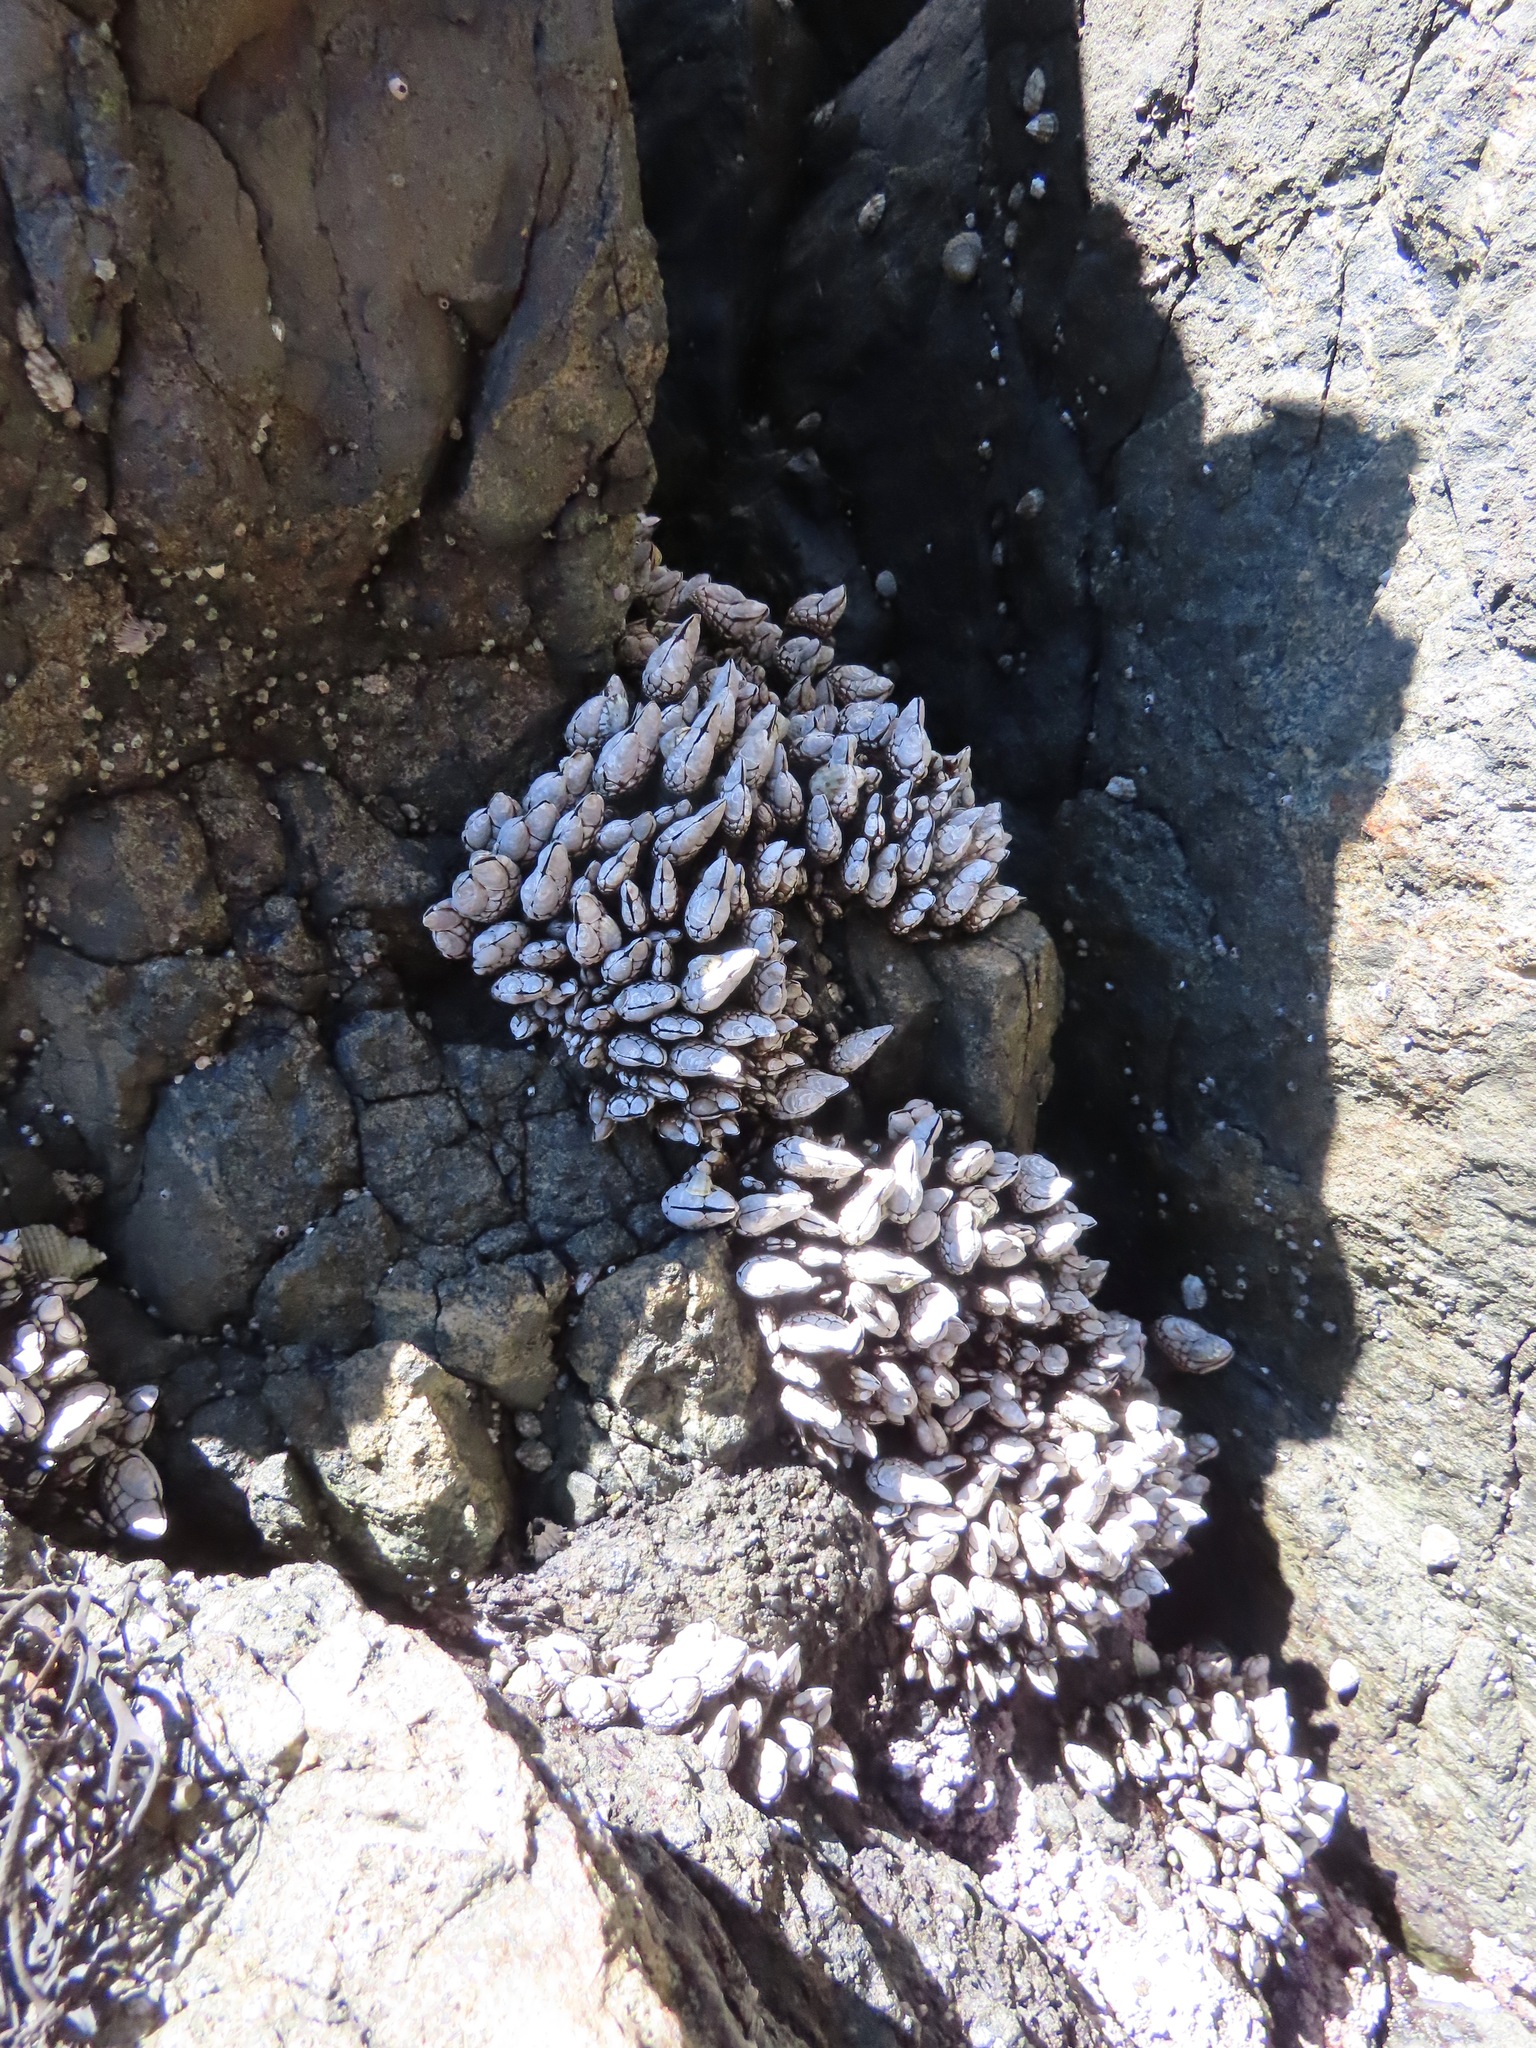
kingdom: Animalia
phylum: Arthropoda
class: Maxillopoda
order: Pedunculata
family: Pollicipedidae
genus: Pollicipes
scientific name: Pollicipes polymerus
